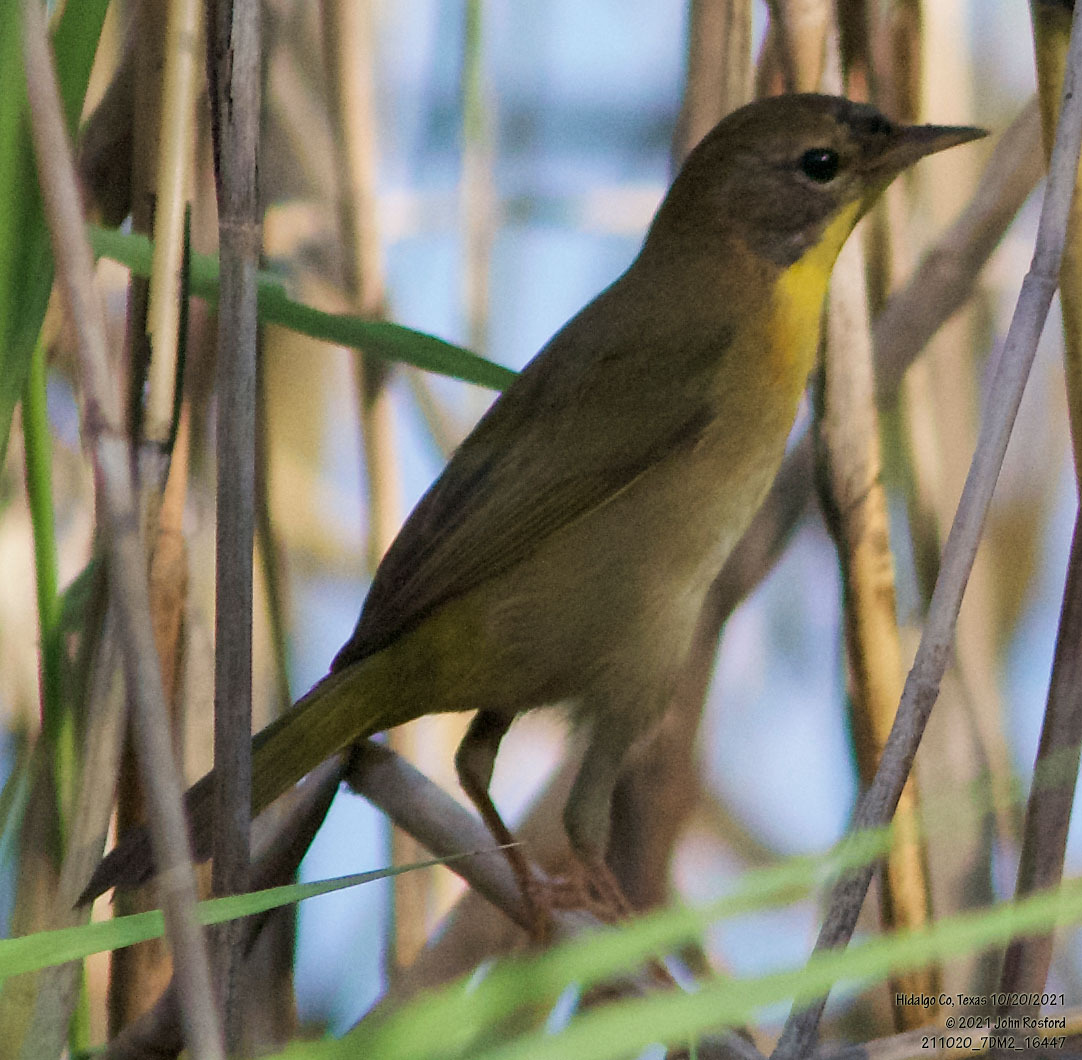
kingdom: Animalia
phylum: Chordata
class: Aves
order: Passeriformes
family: Parulidae
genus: Geothlypis
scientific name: Geothlypis trichas
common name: Common yellowthroat
